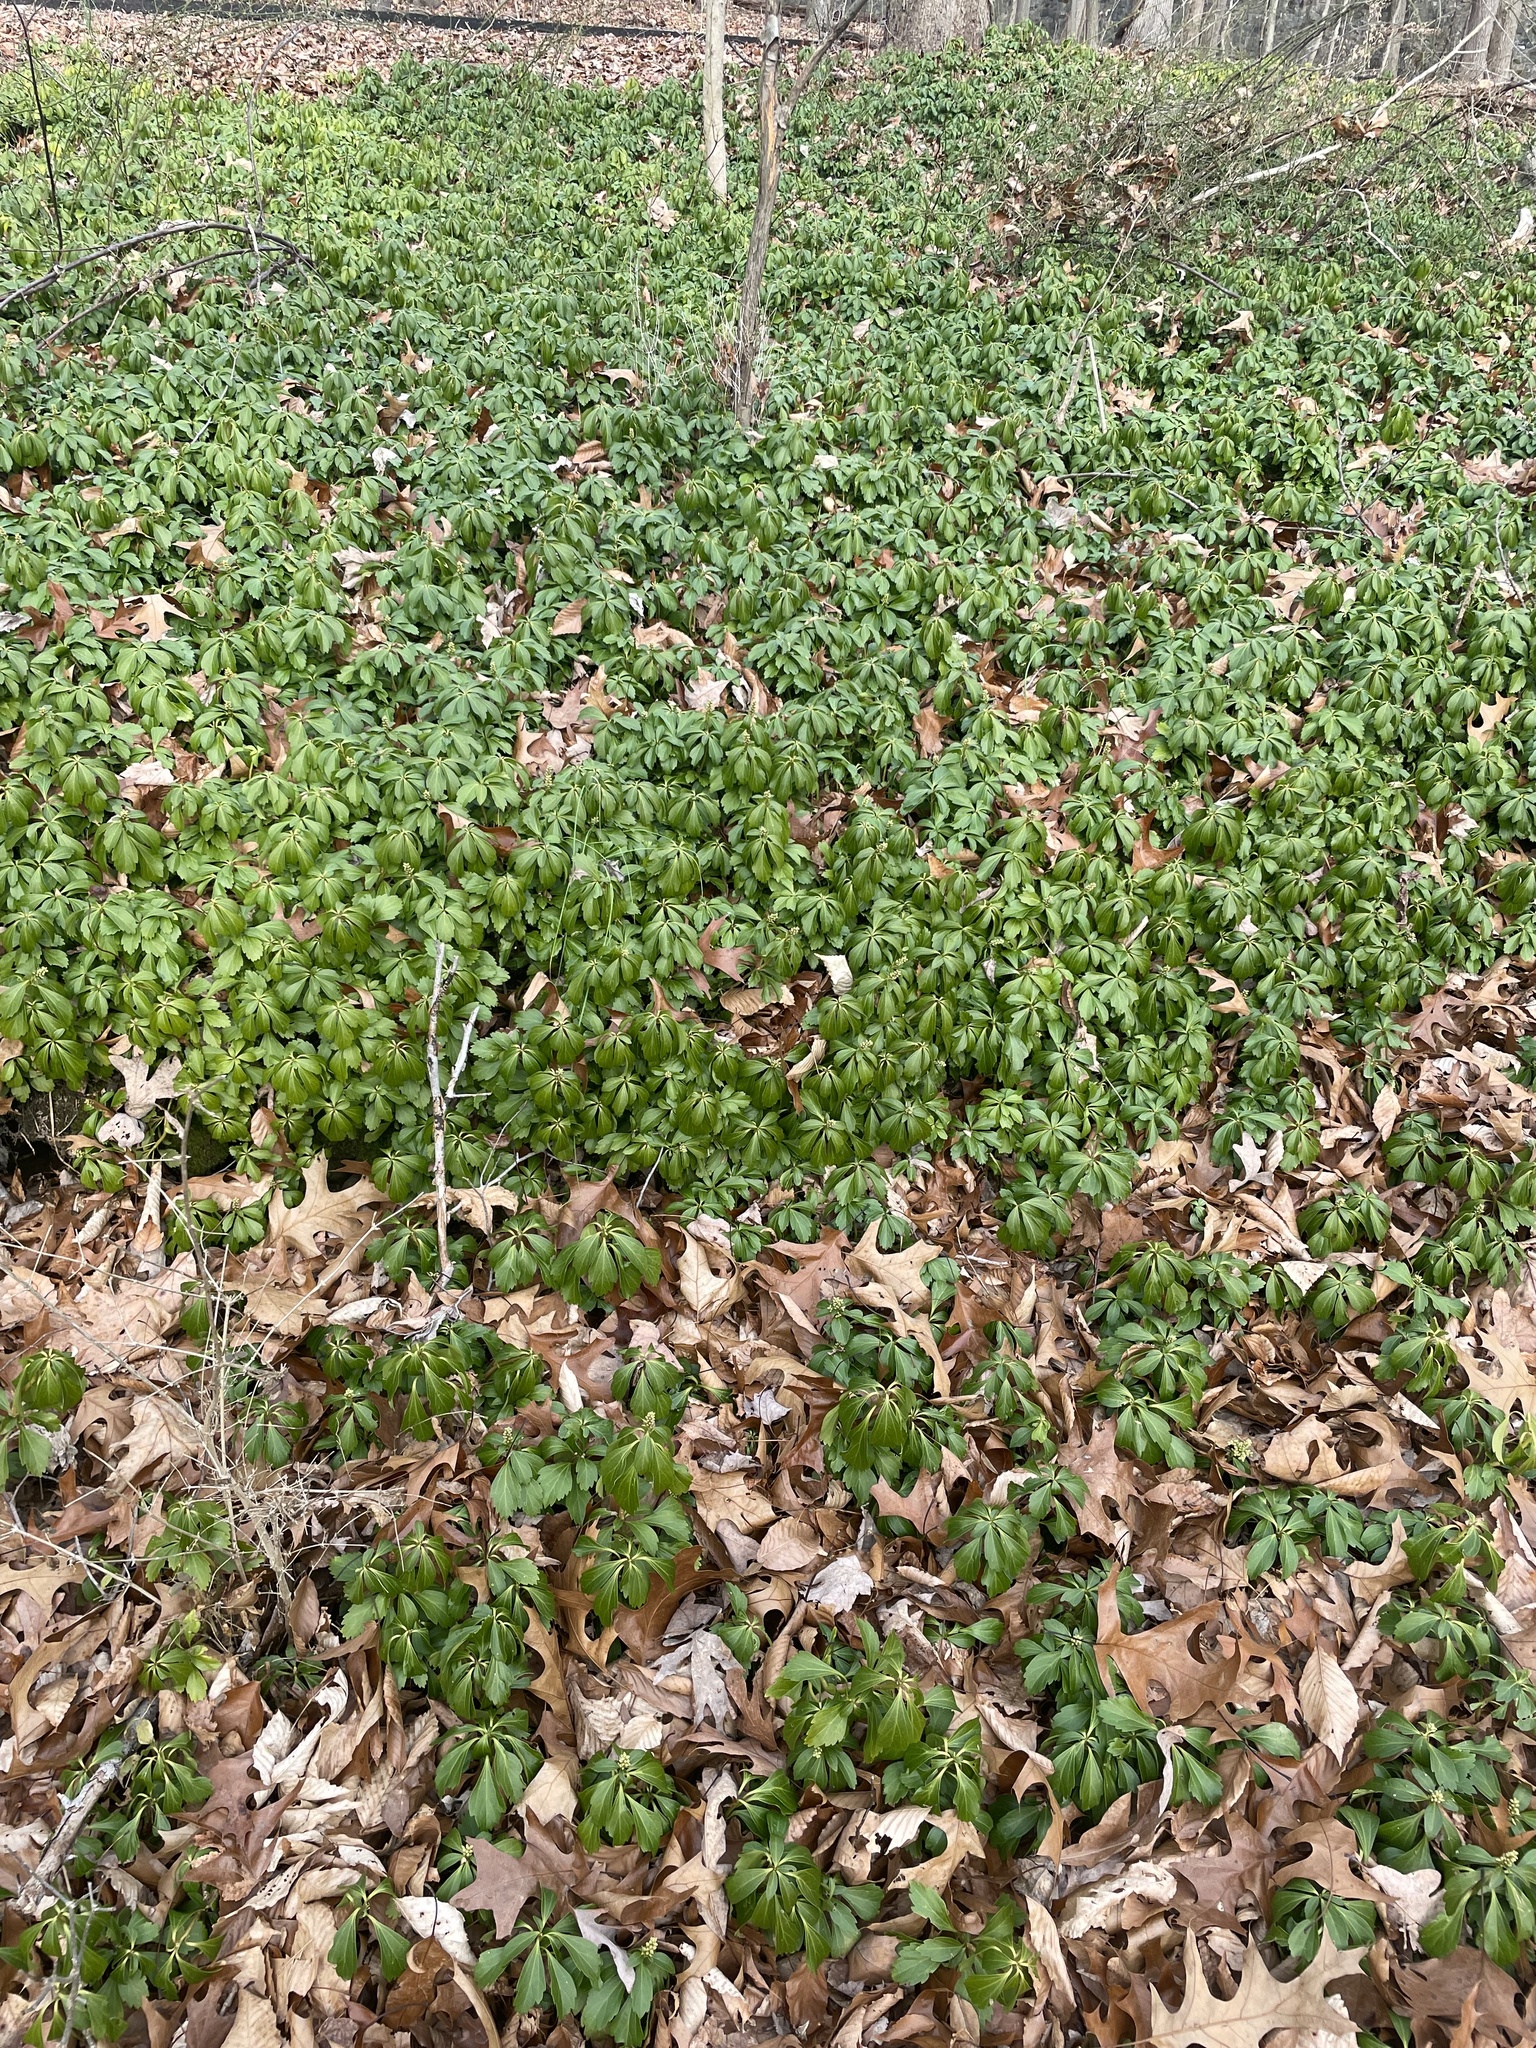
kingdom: Plantae
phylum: Tracheophyta
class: Magnoliopsida
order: Buxales
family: Buxaceae
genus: Pachysandra
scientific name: Pachysandra terminalis
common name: Japanese pachysandra
